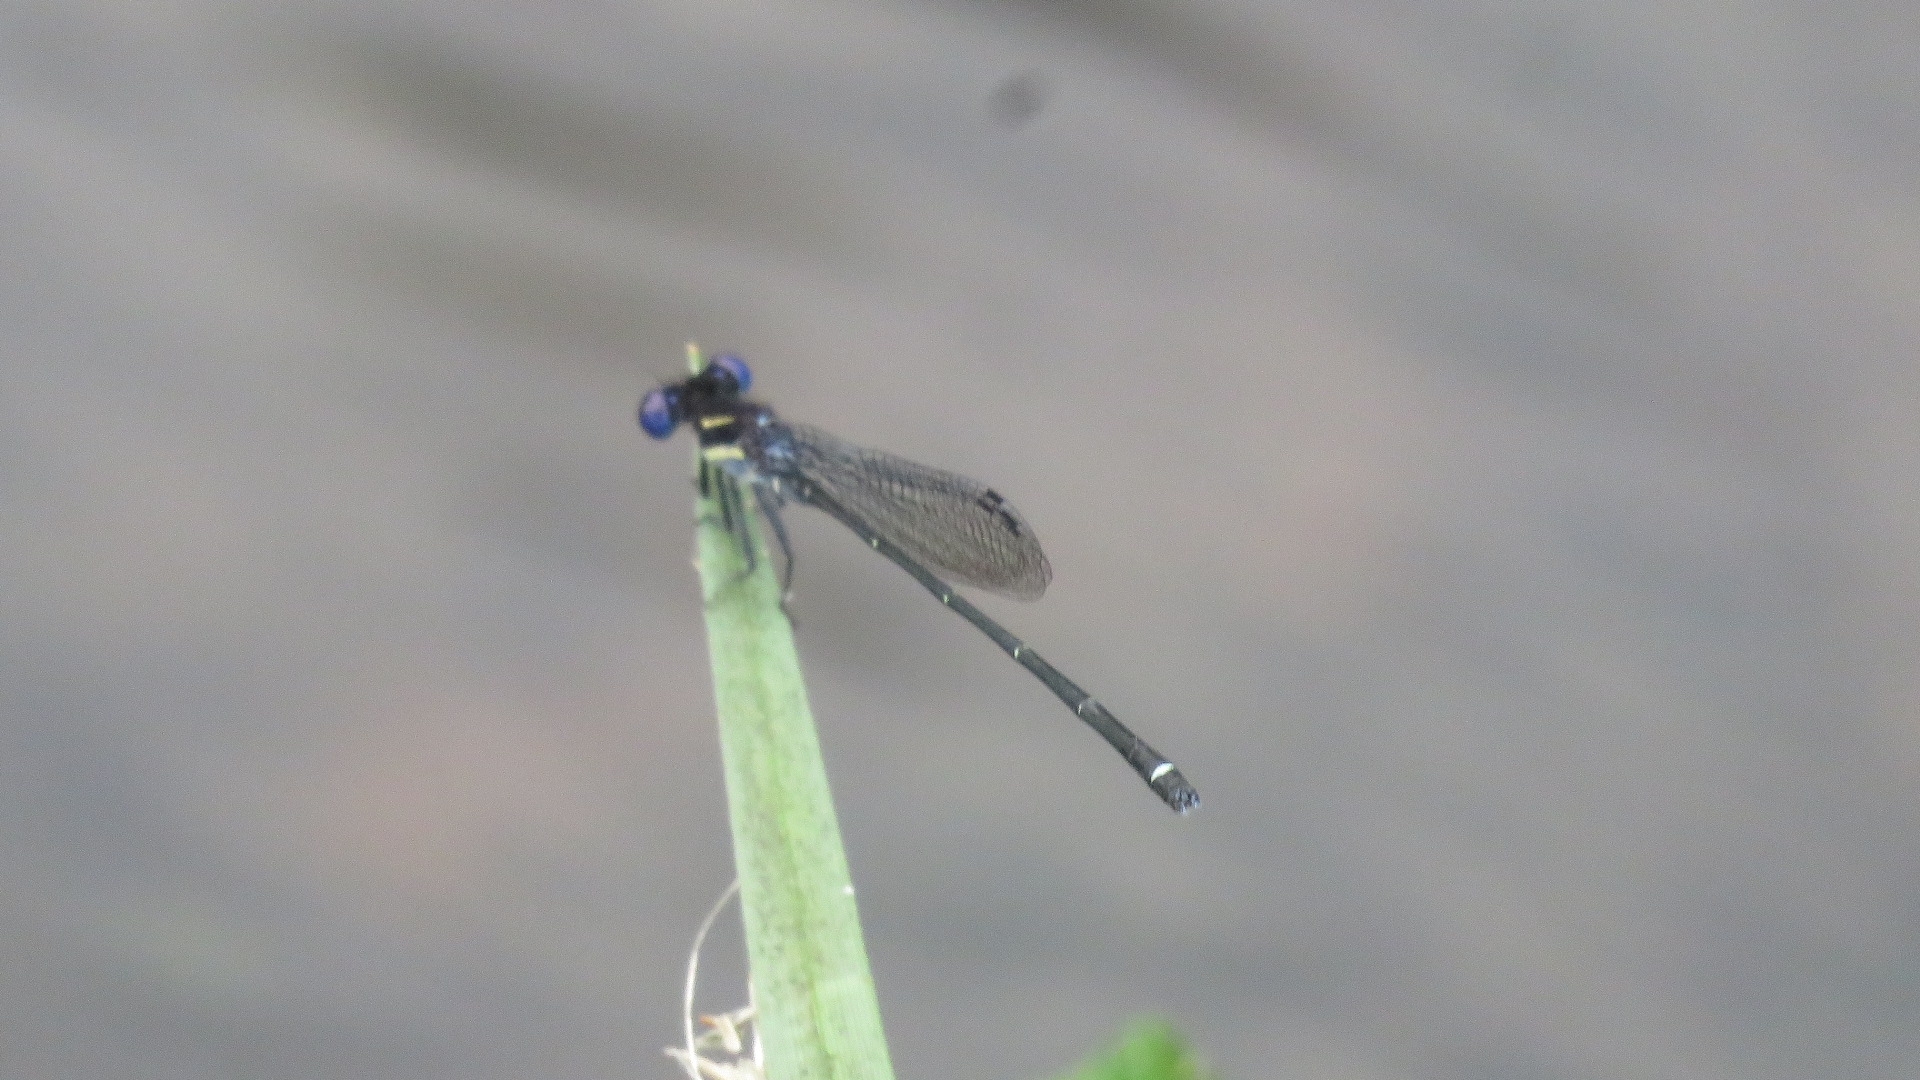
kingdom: Animalia
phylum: Arthropoda
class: Insecta
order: Odonata
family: Coenagrionidae
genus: Argia
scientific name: Argia translata
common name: Dusky dancer
